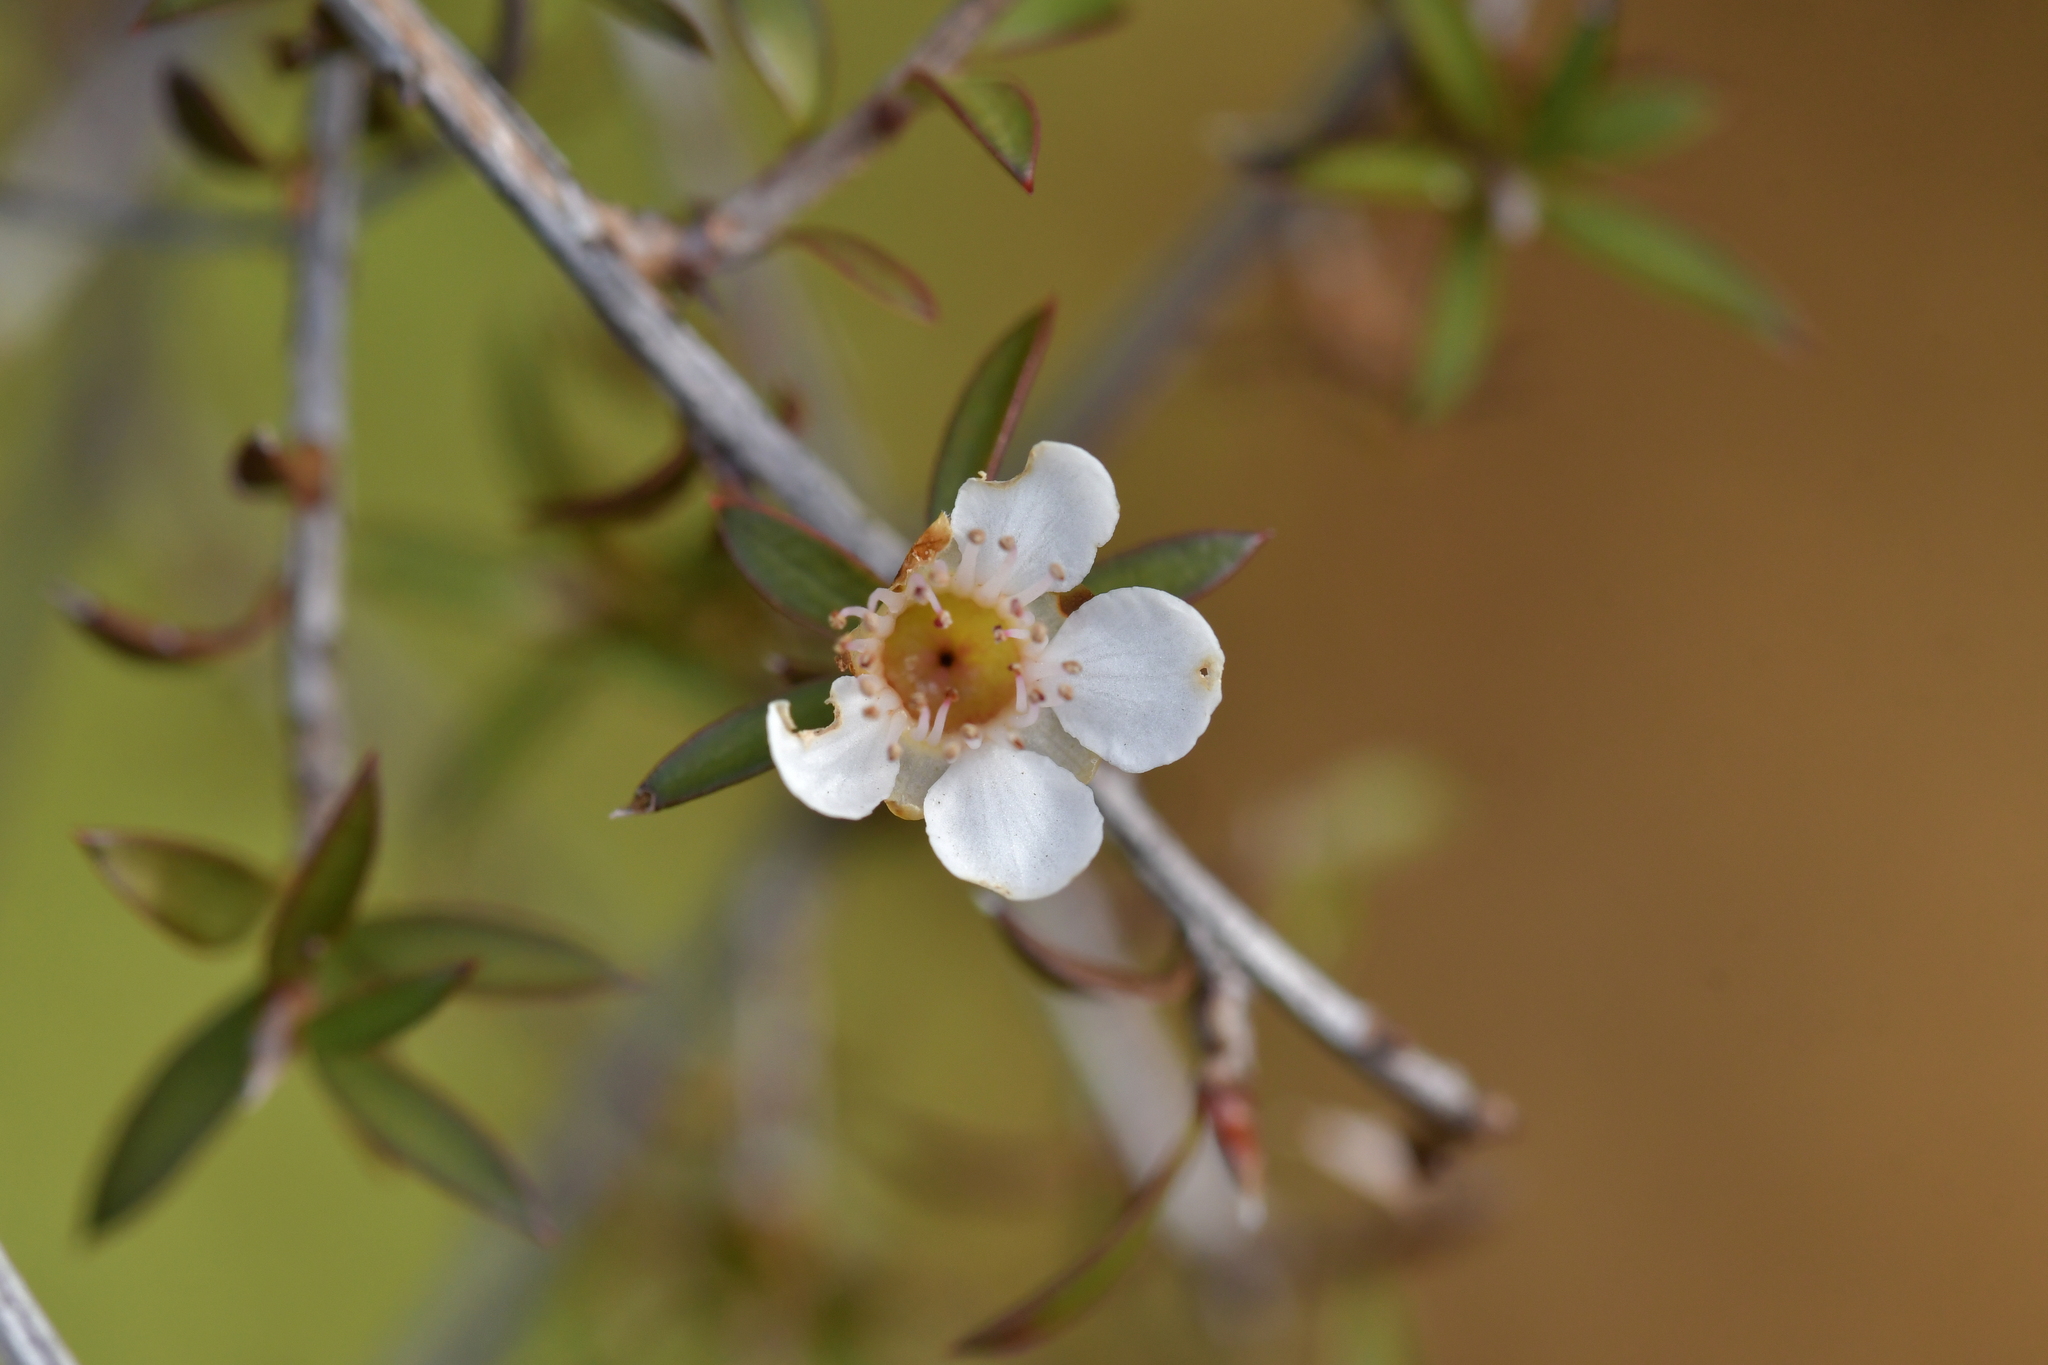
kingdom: Plantae
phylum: Tracheophyta
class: Magnoliopsida
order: Myrtales
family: Myrtaceae
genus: Leptospermum
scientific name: Leptospermum scoparium
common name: Broom tea-tree
